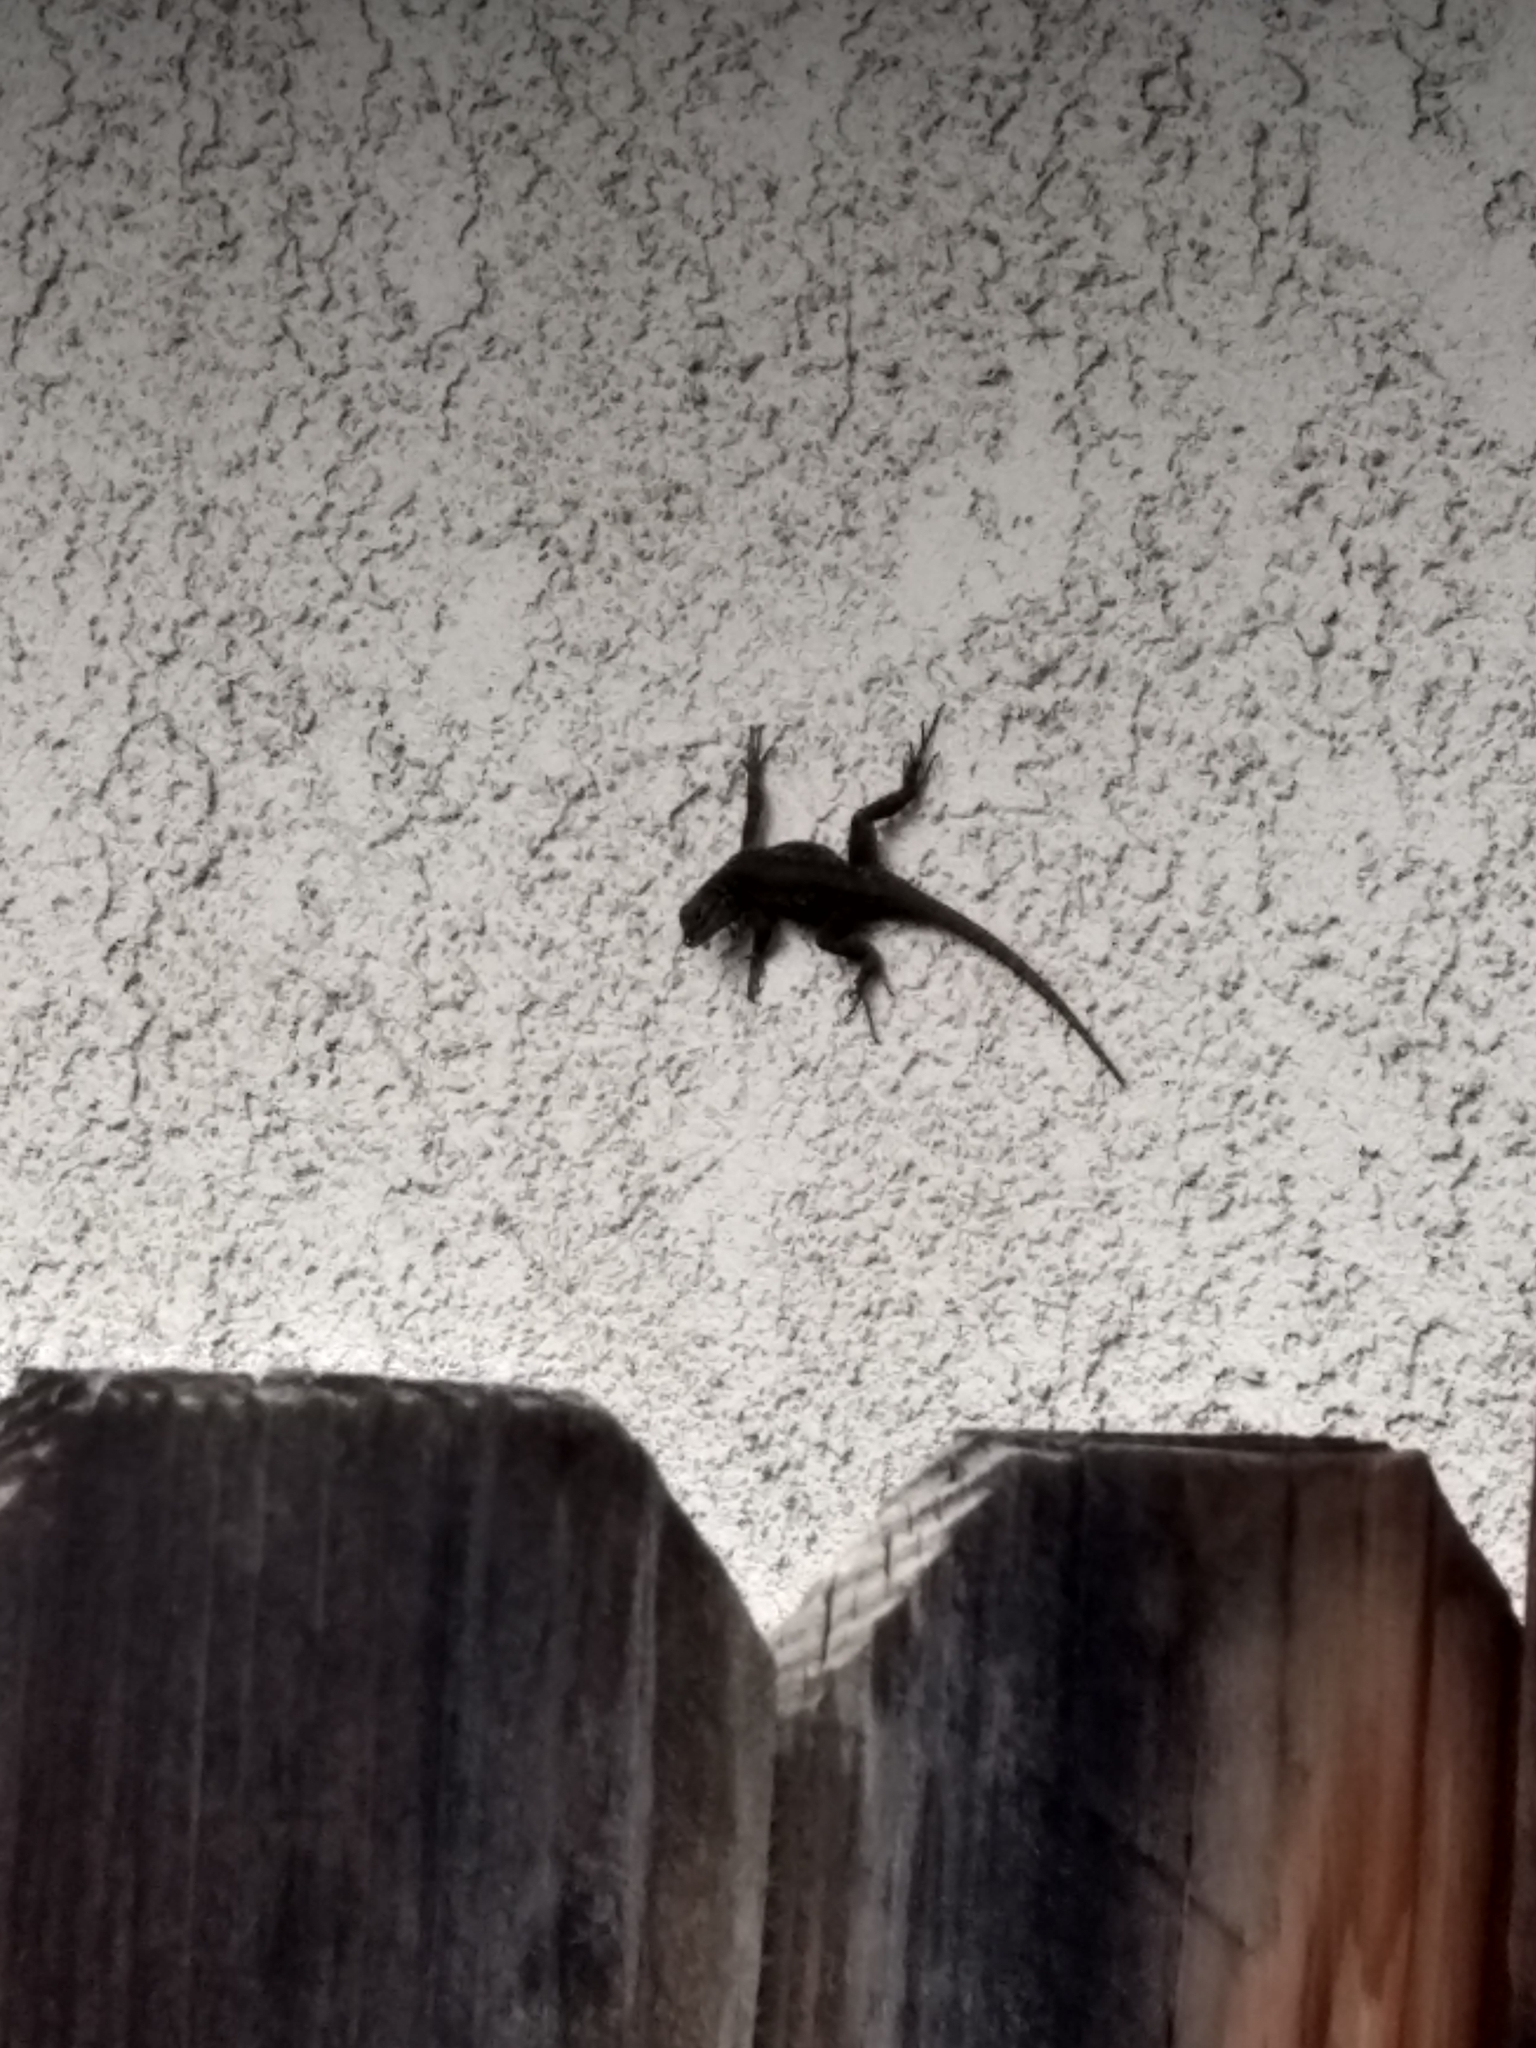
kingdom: Animalia
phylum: Chordata
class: Squamata
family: Phrynosomatidae
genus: Sceloporus
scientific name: Sceloporus occidentalis
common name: Western fence lizard
